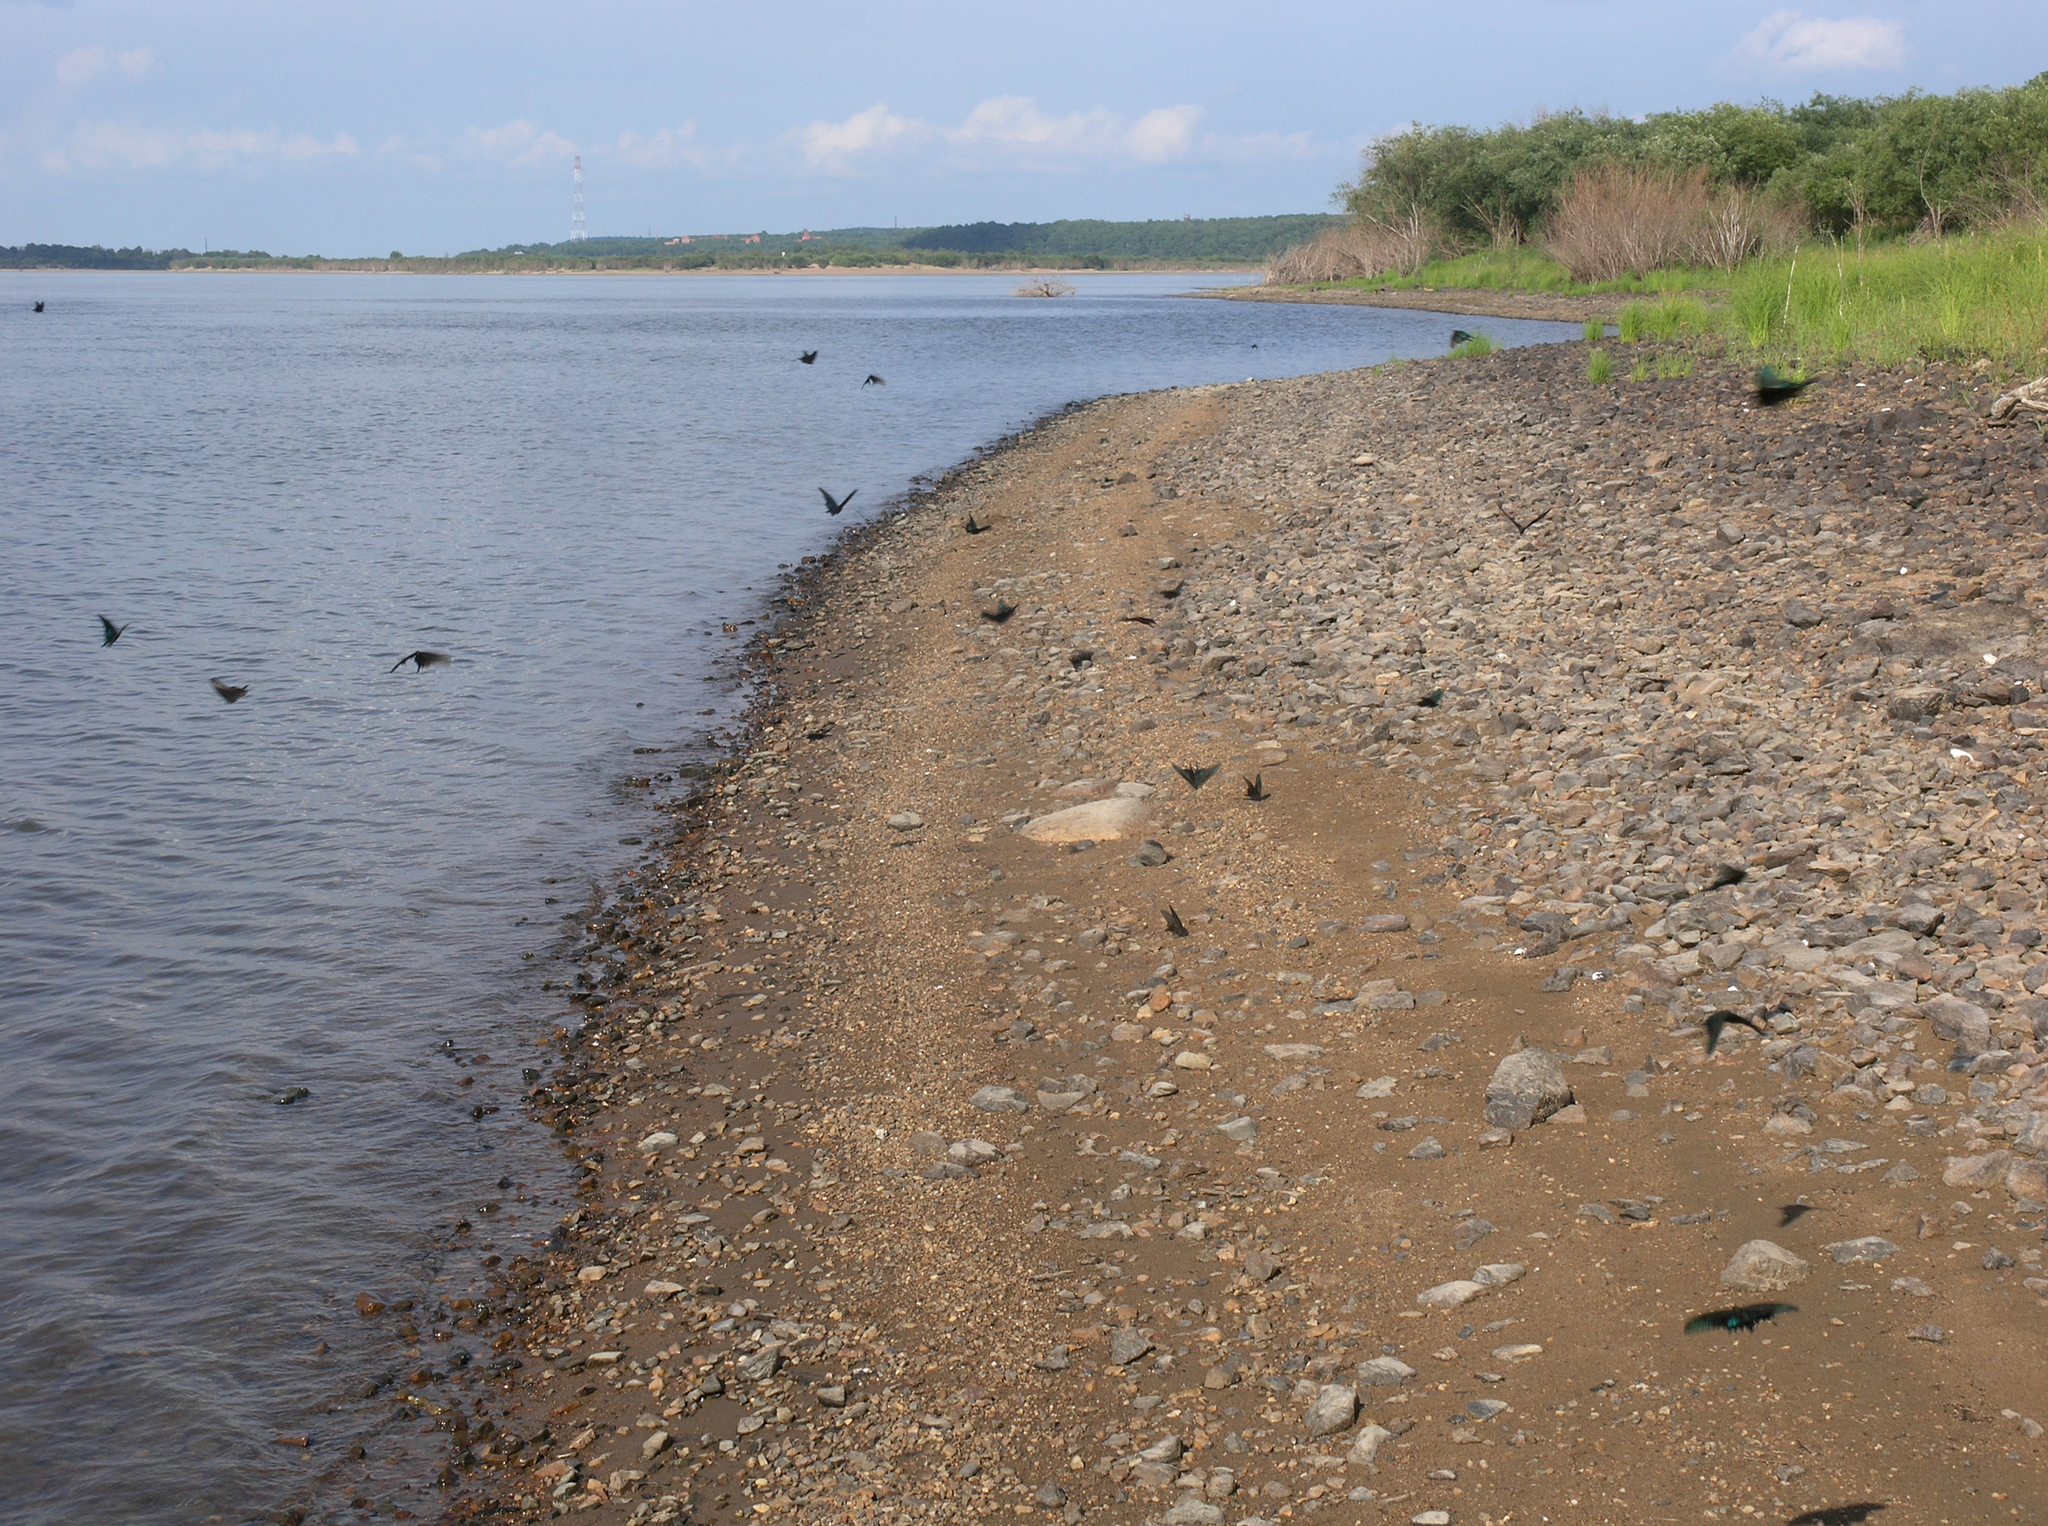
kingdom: Animalia
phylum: Arthropoda
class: Insecta
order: Lepidoptera
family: Papilionidae
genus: Papilio
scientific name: Papilio maackii
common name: Alpine black swallowtail
